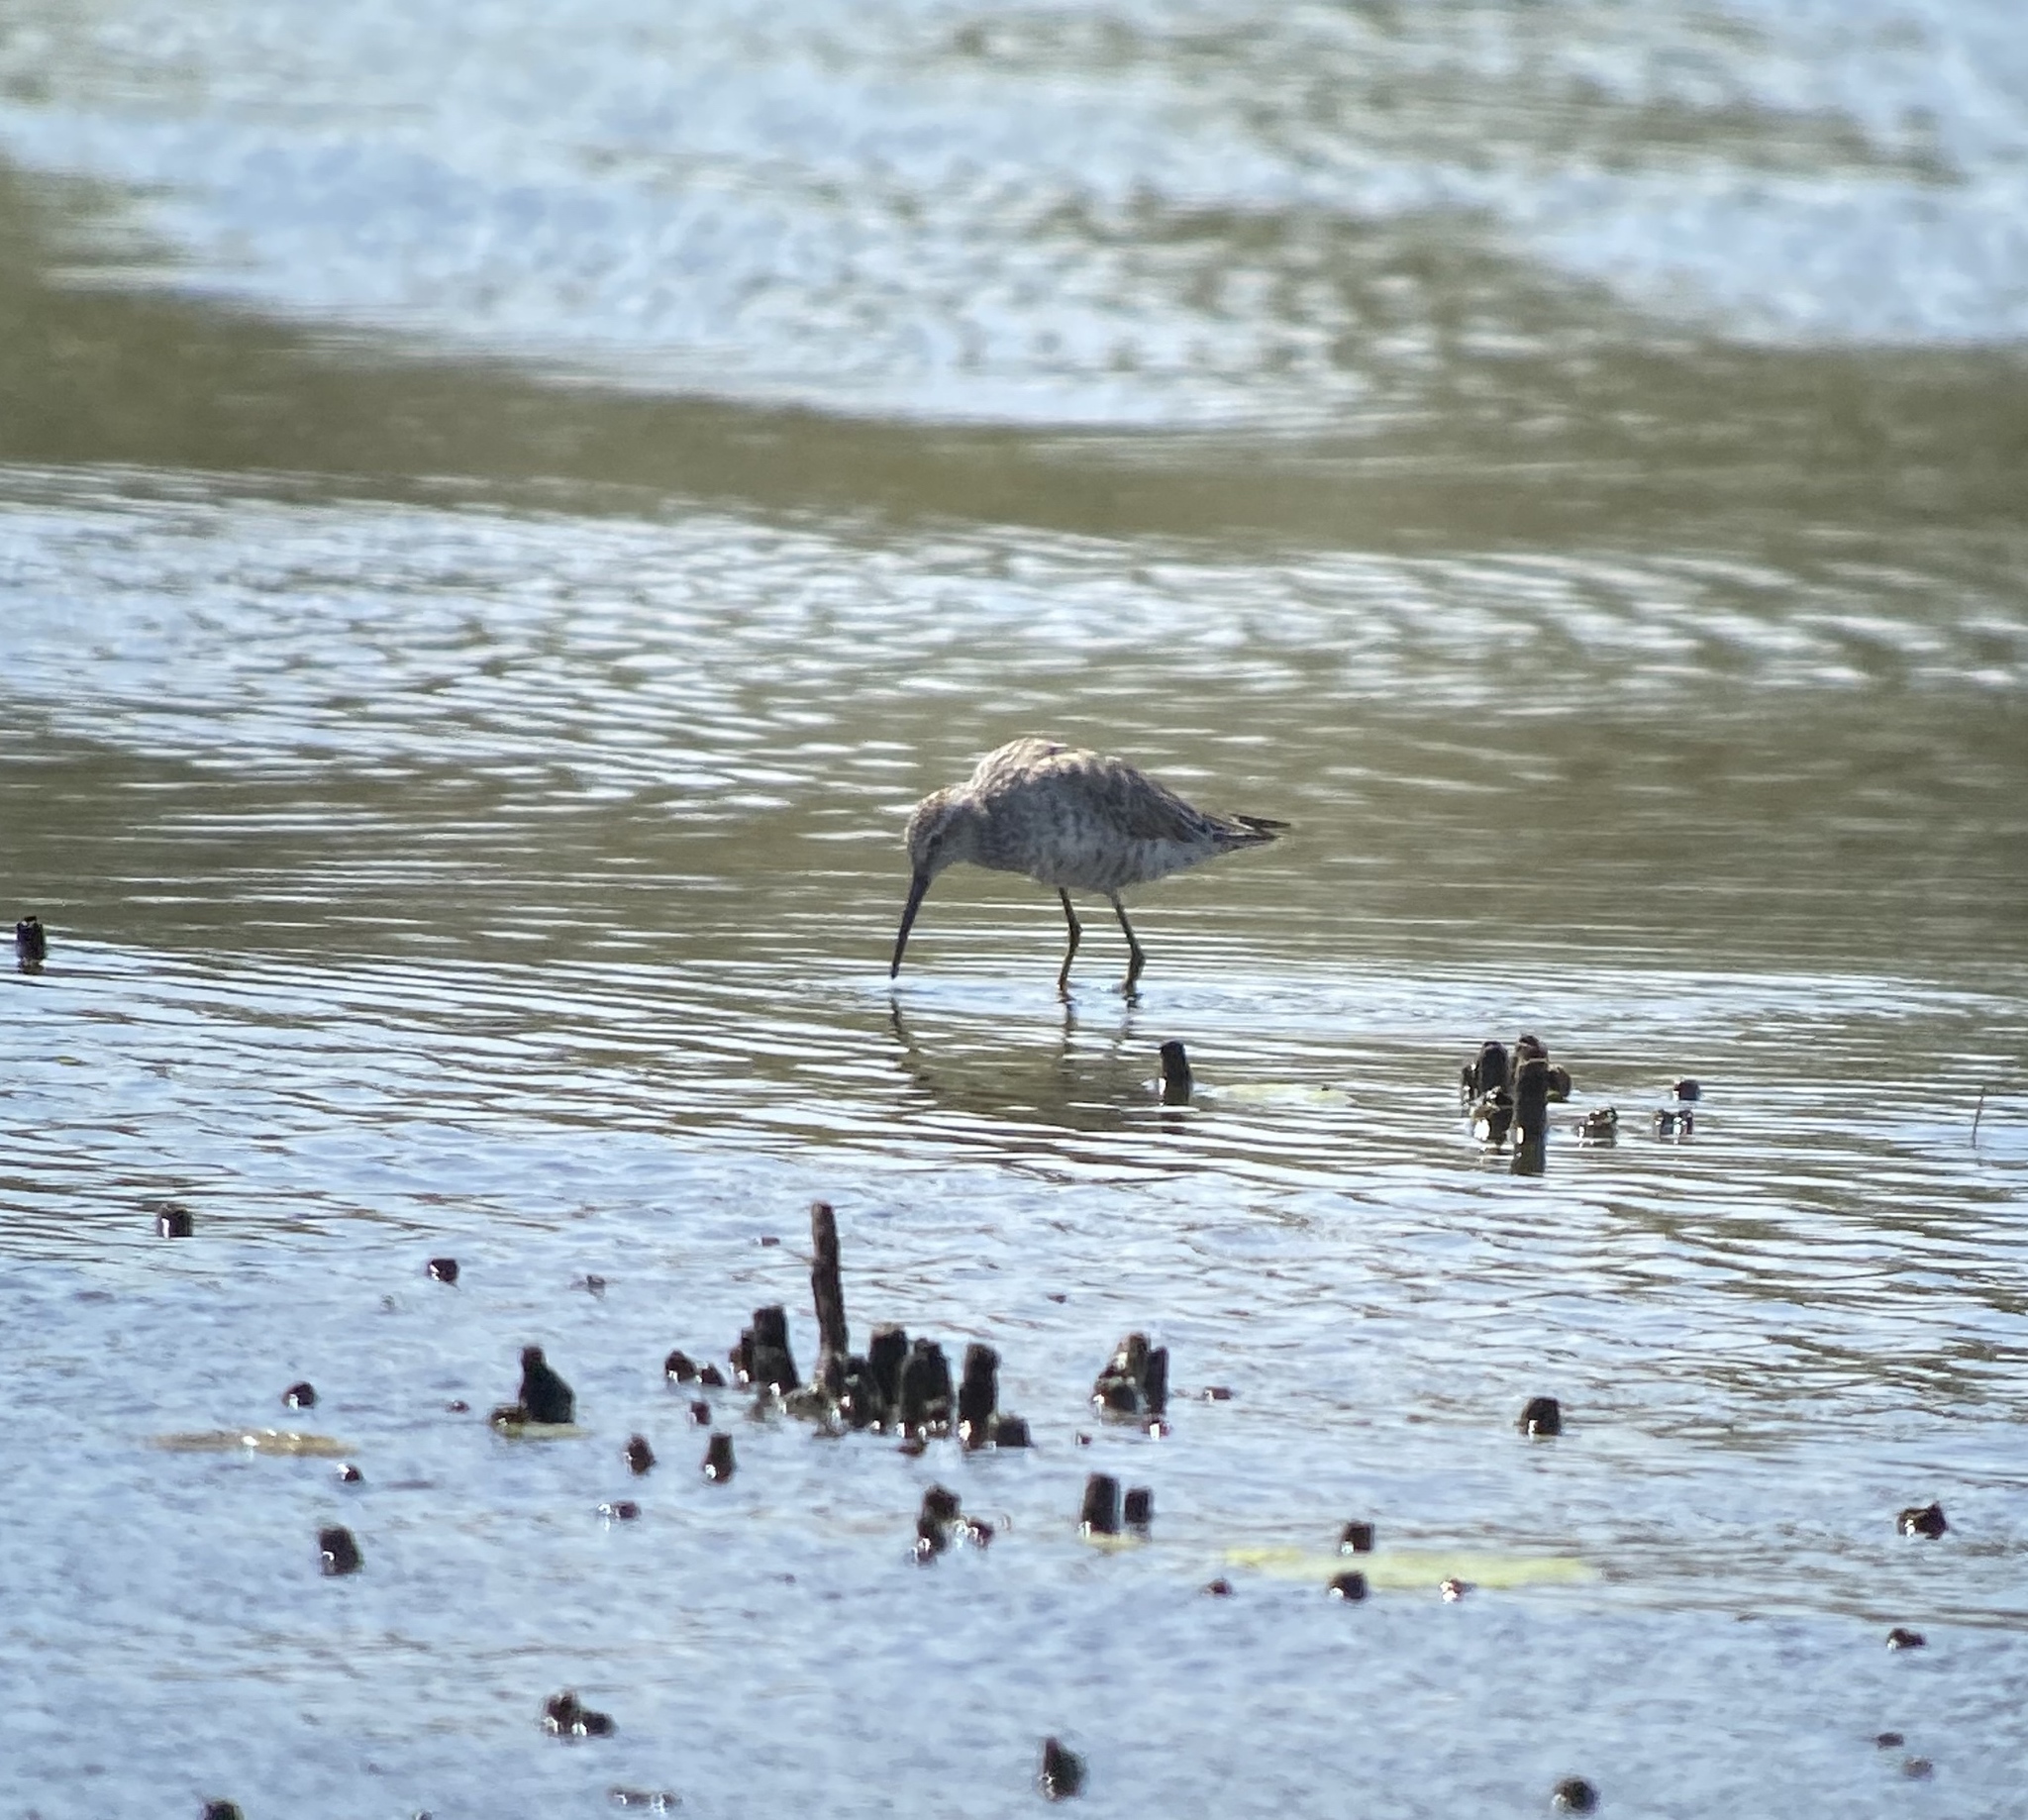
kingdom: Animalia
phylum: Chordata
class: Aves
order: Charadriiformes
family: Scolopacidae
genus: Calidris
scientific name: Calidris himantopus
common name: Stilt sandpiper
